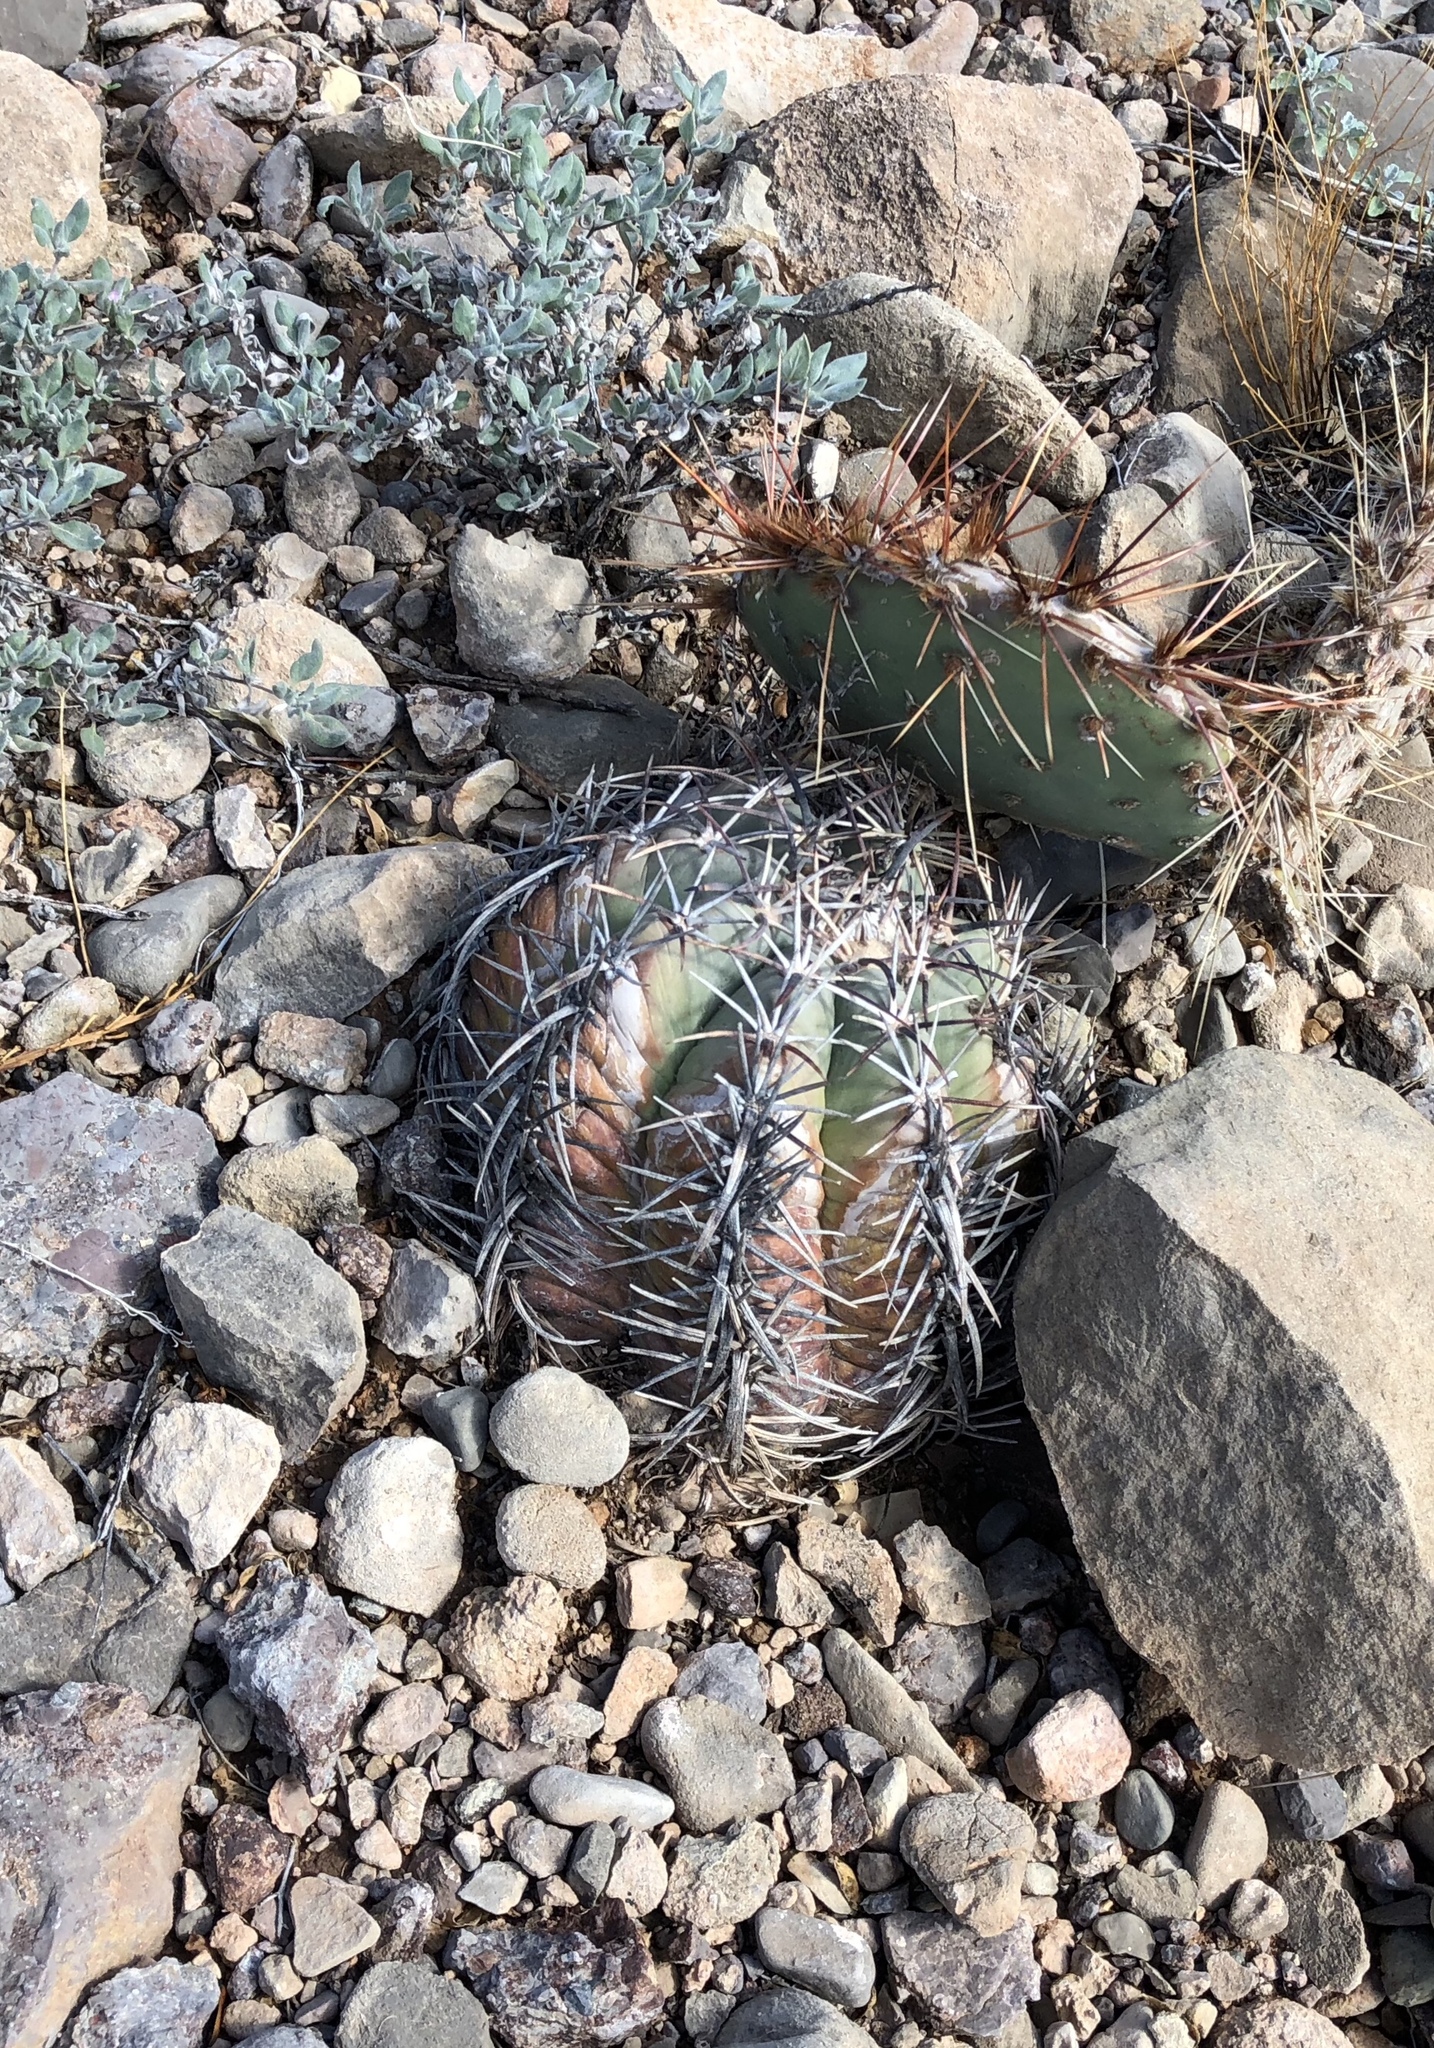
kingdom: Plantae
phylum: Tracheophyta
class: Magnoliopsida
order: Caryophyllales
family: Cactaceae
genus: Echinocactus
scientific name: Echinocactus horizonthalonius
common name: Devilshead
